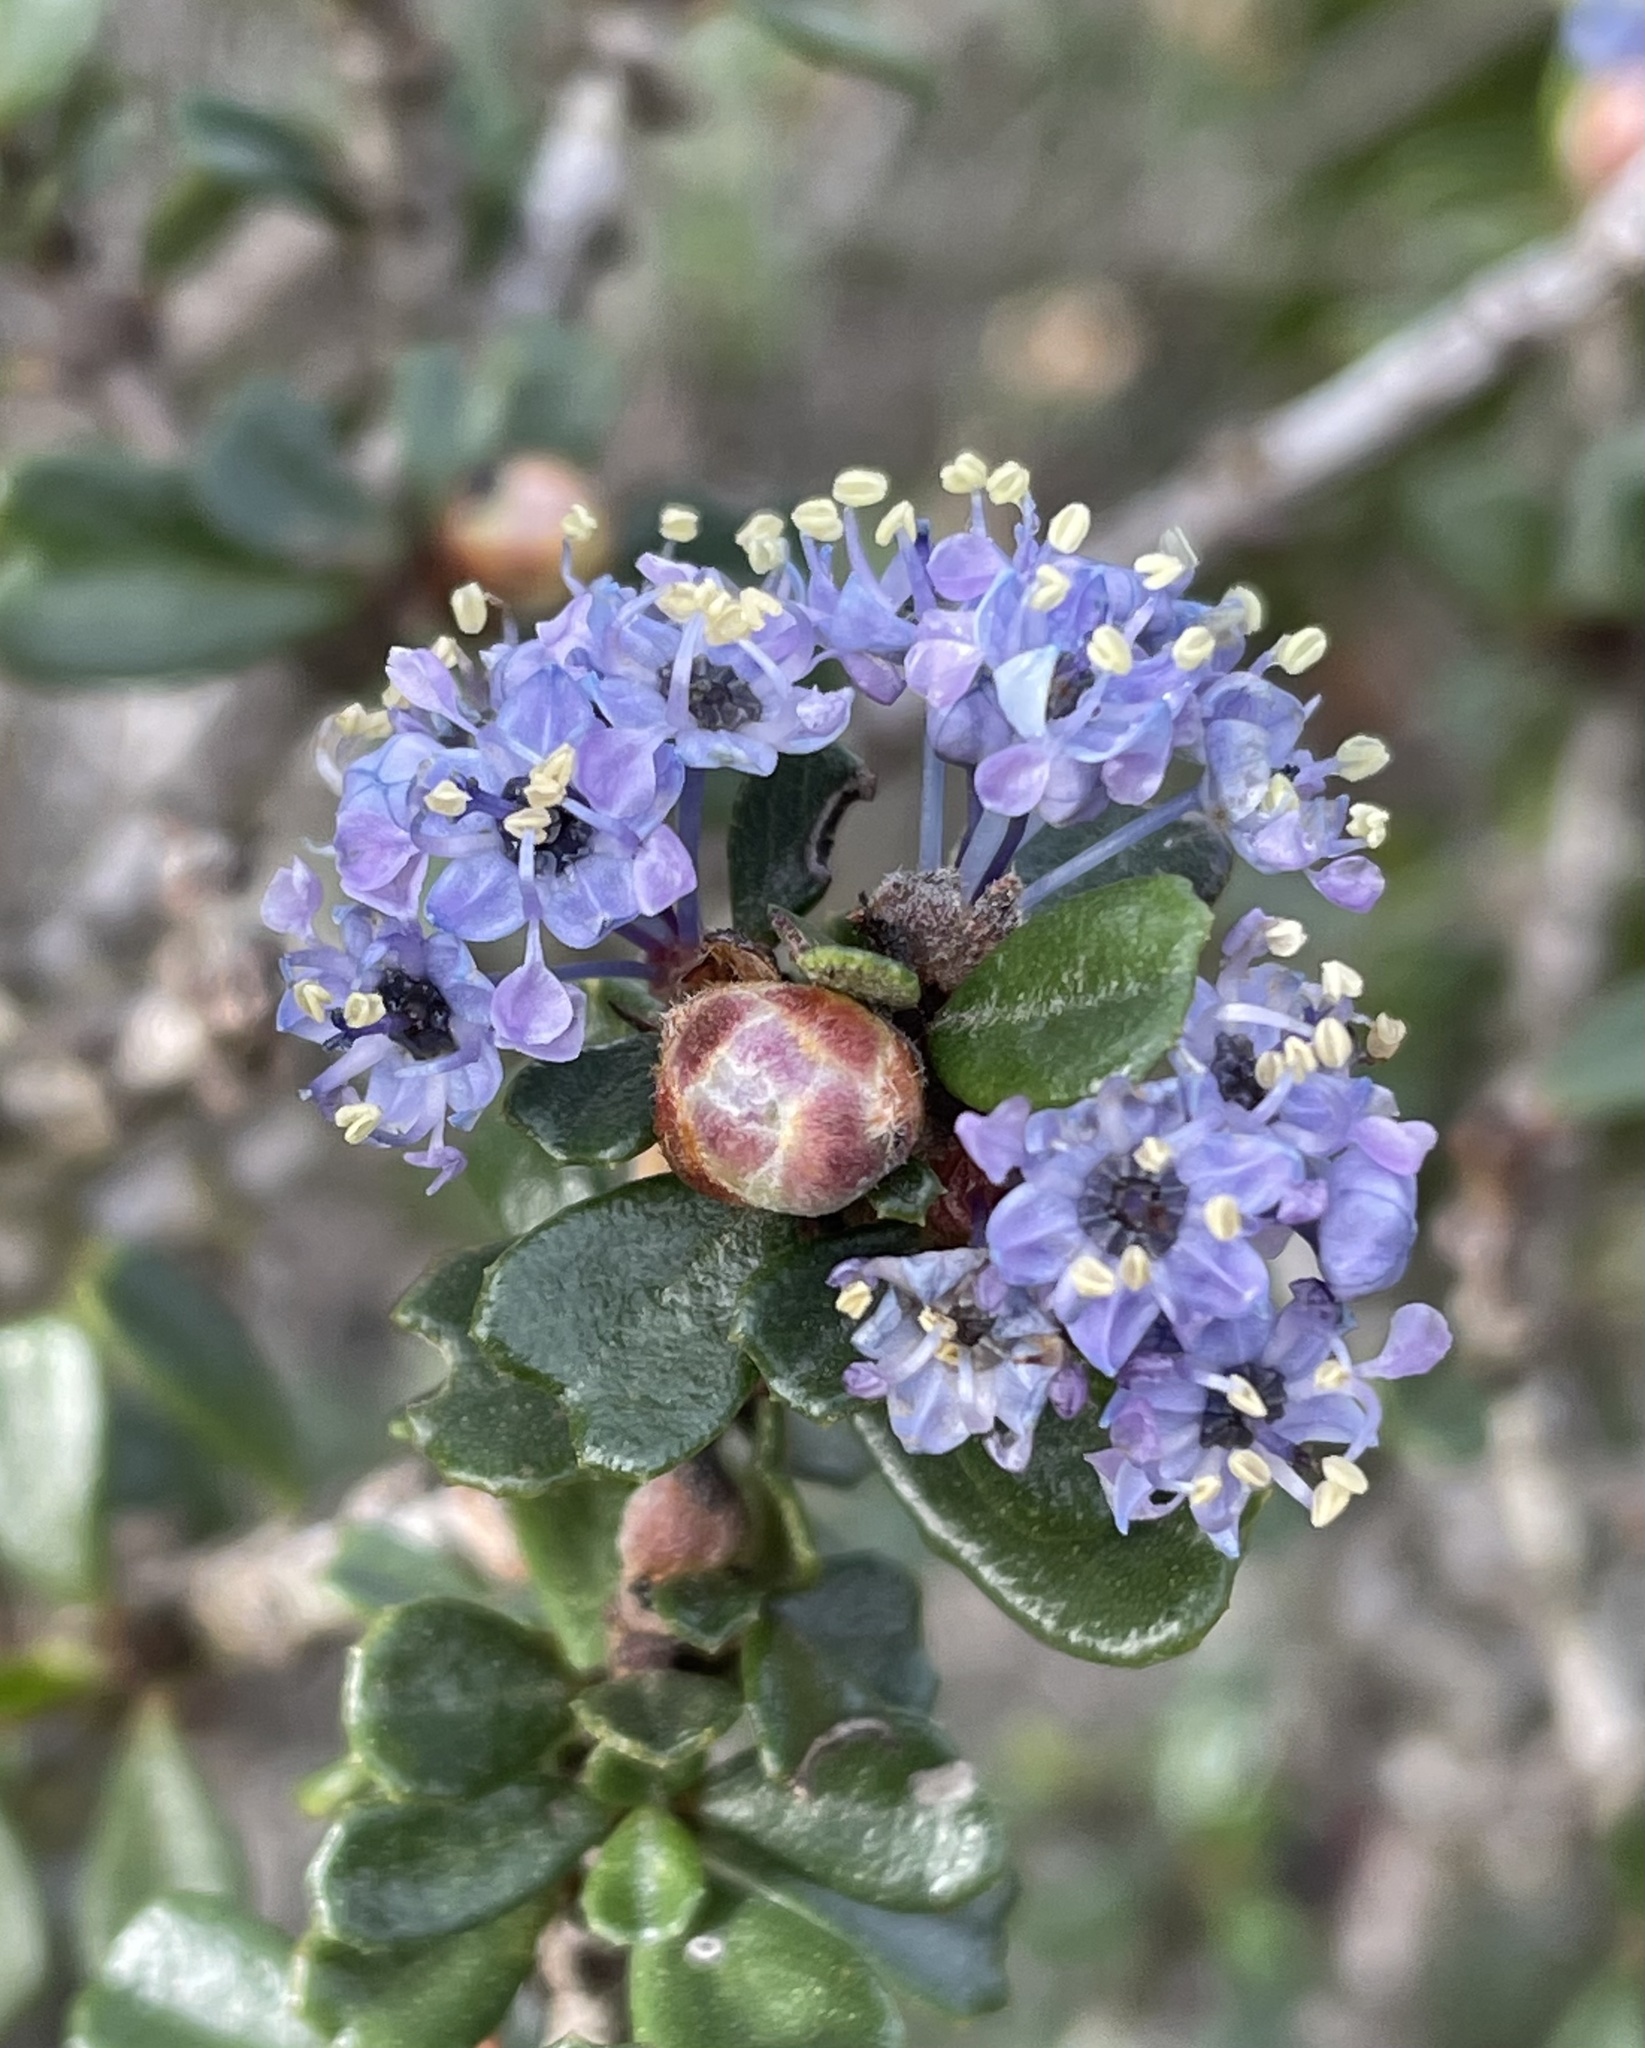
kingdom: Plantae
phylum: Tracheophyta
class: Magnoliopsida
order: Rosales
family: Rhamnaceae
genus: Ceanothus
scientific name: Ceanothus cuneatus
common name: Cuneate ceanothus
